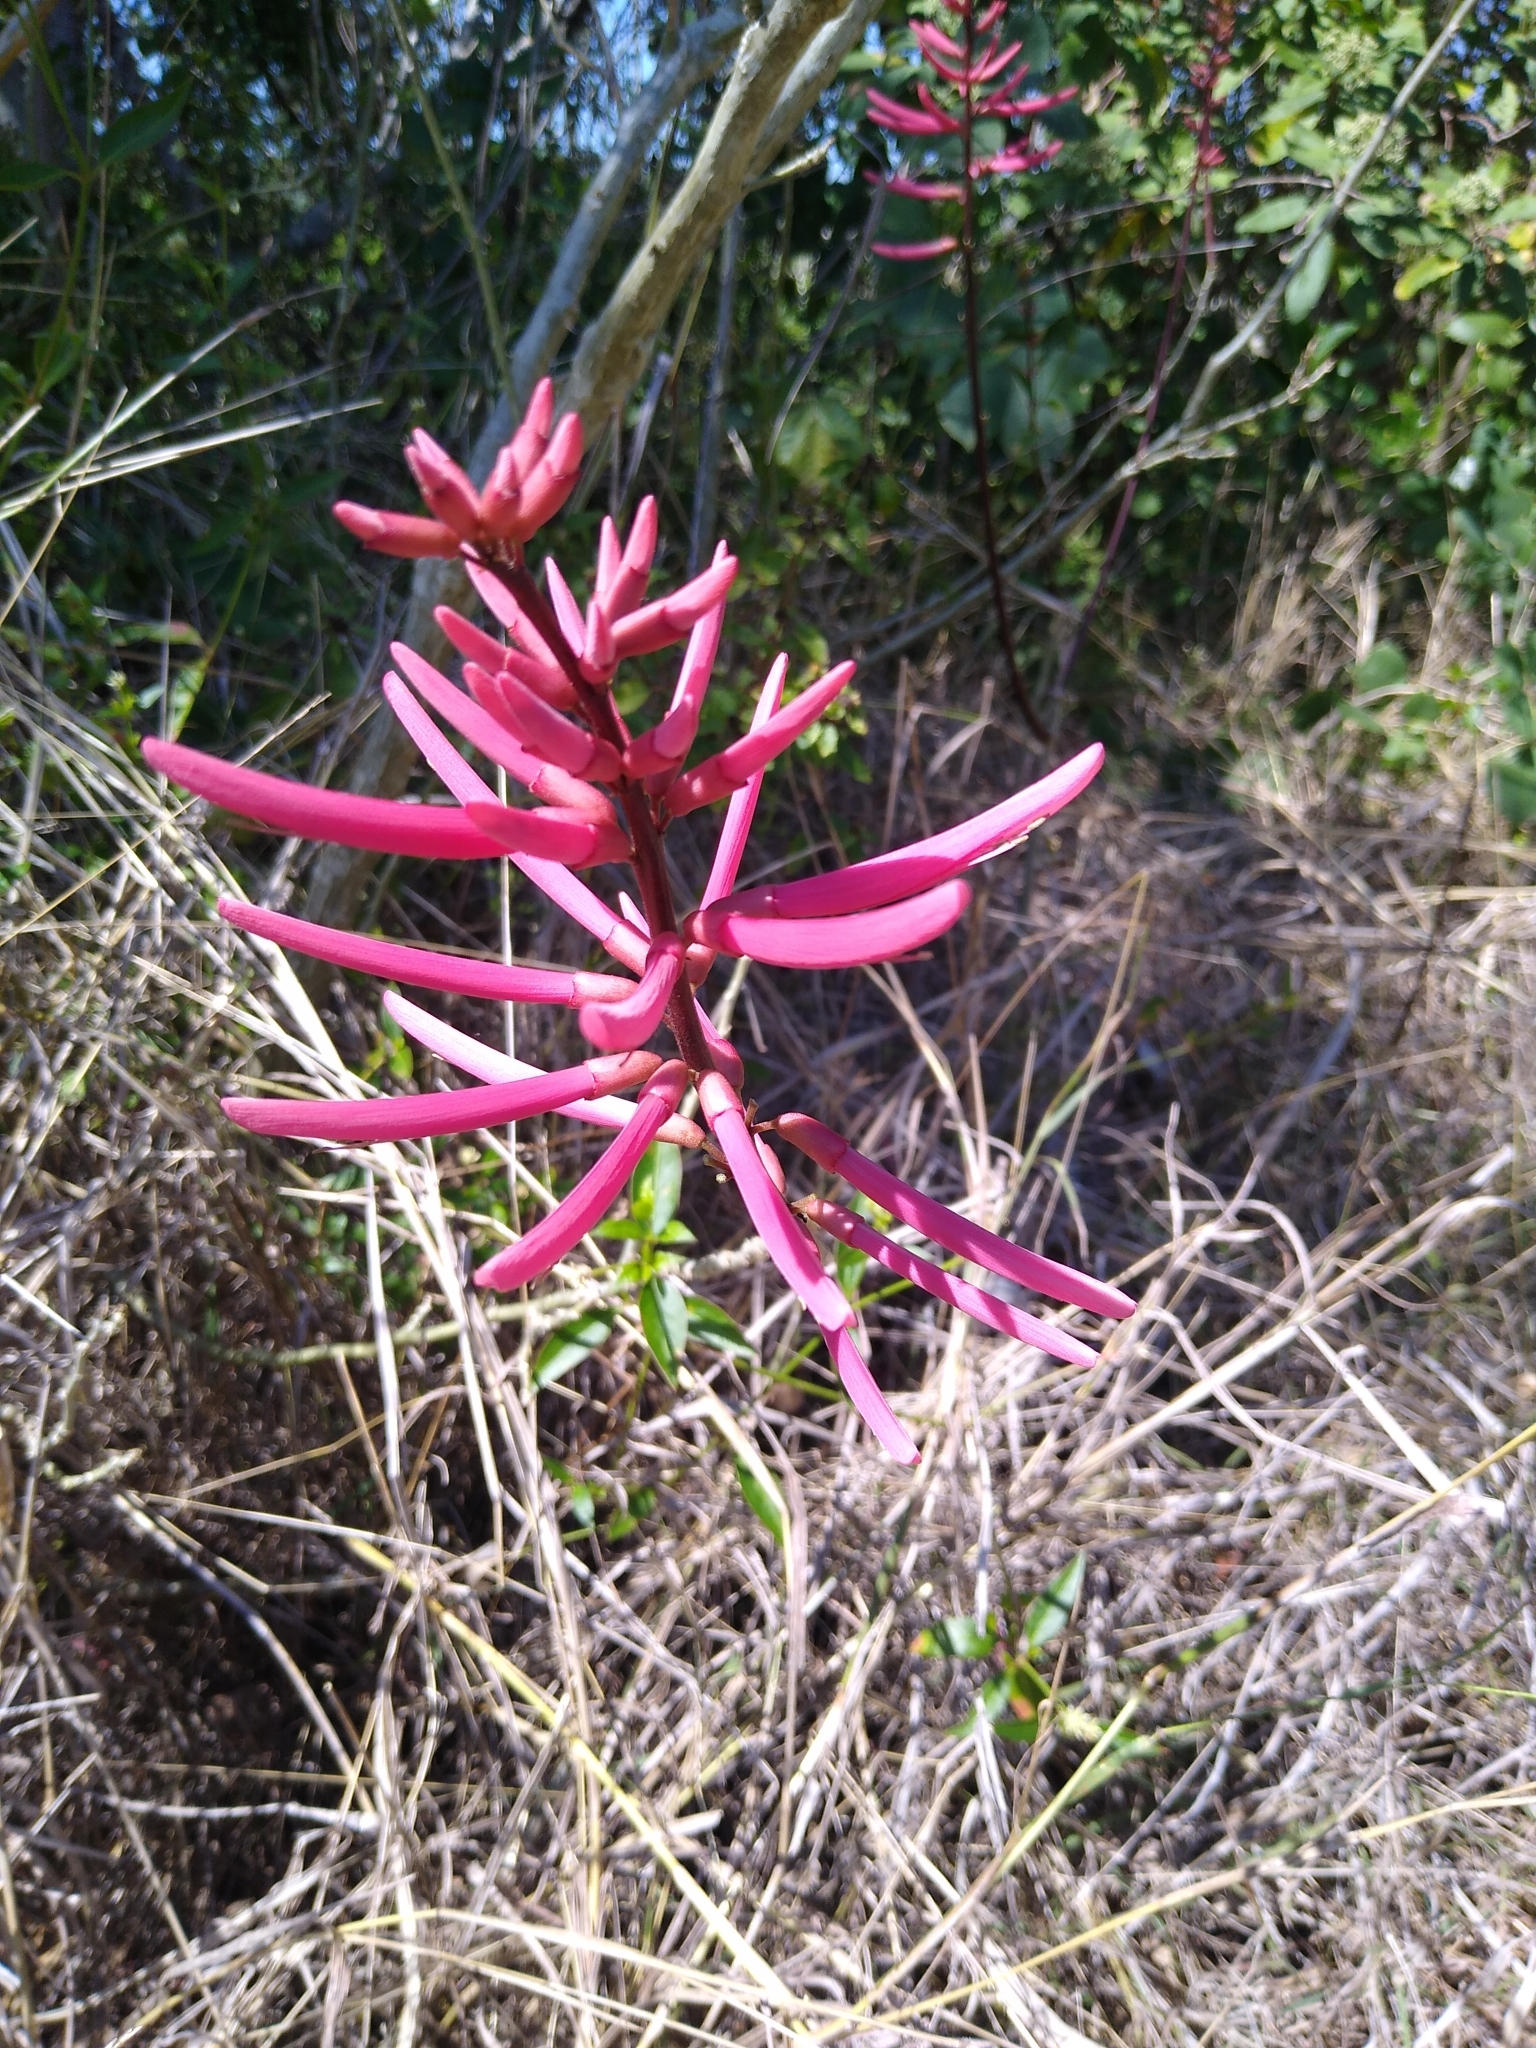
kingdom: Plantae
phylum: Tracheophyta
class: Magnoliopsida
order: Fabales
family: Fabaceae
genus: Erythrina
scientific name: Erythrina herbacea
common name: Coral-bean
